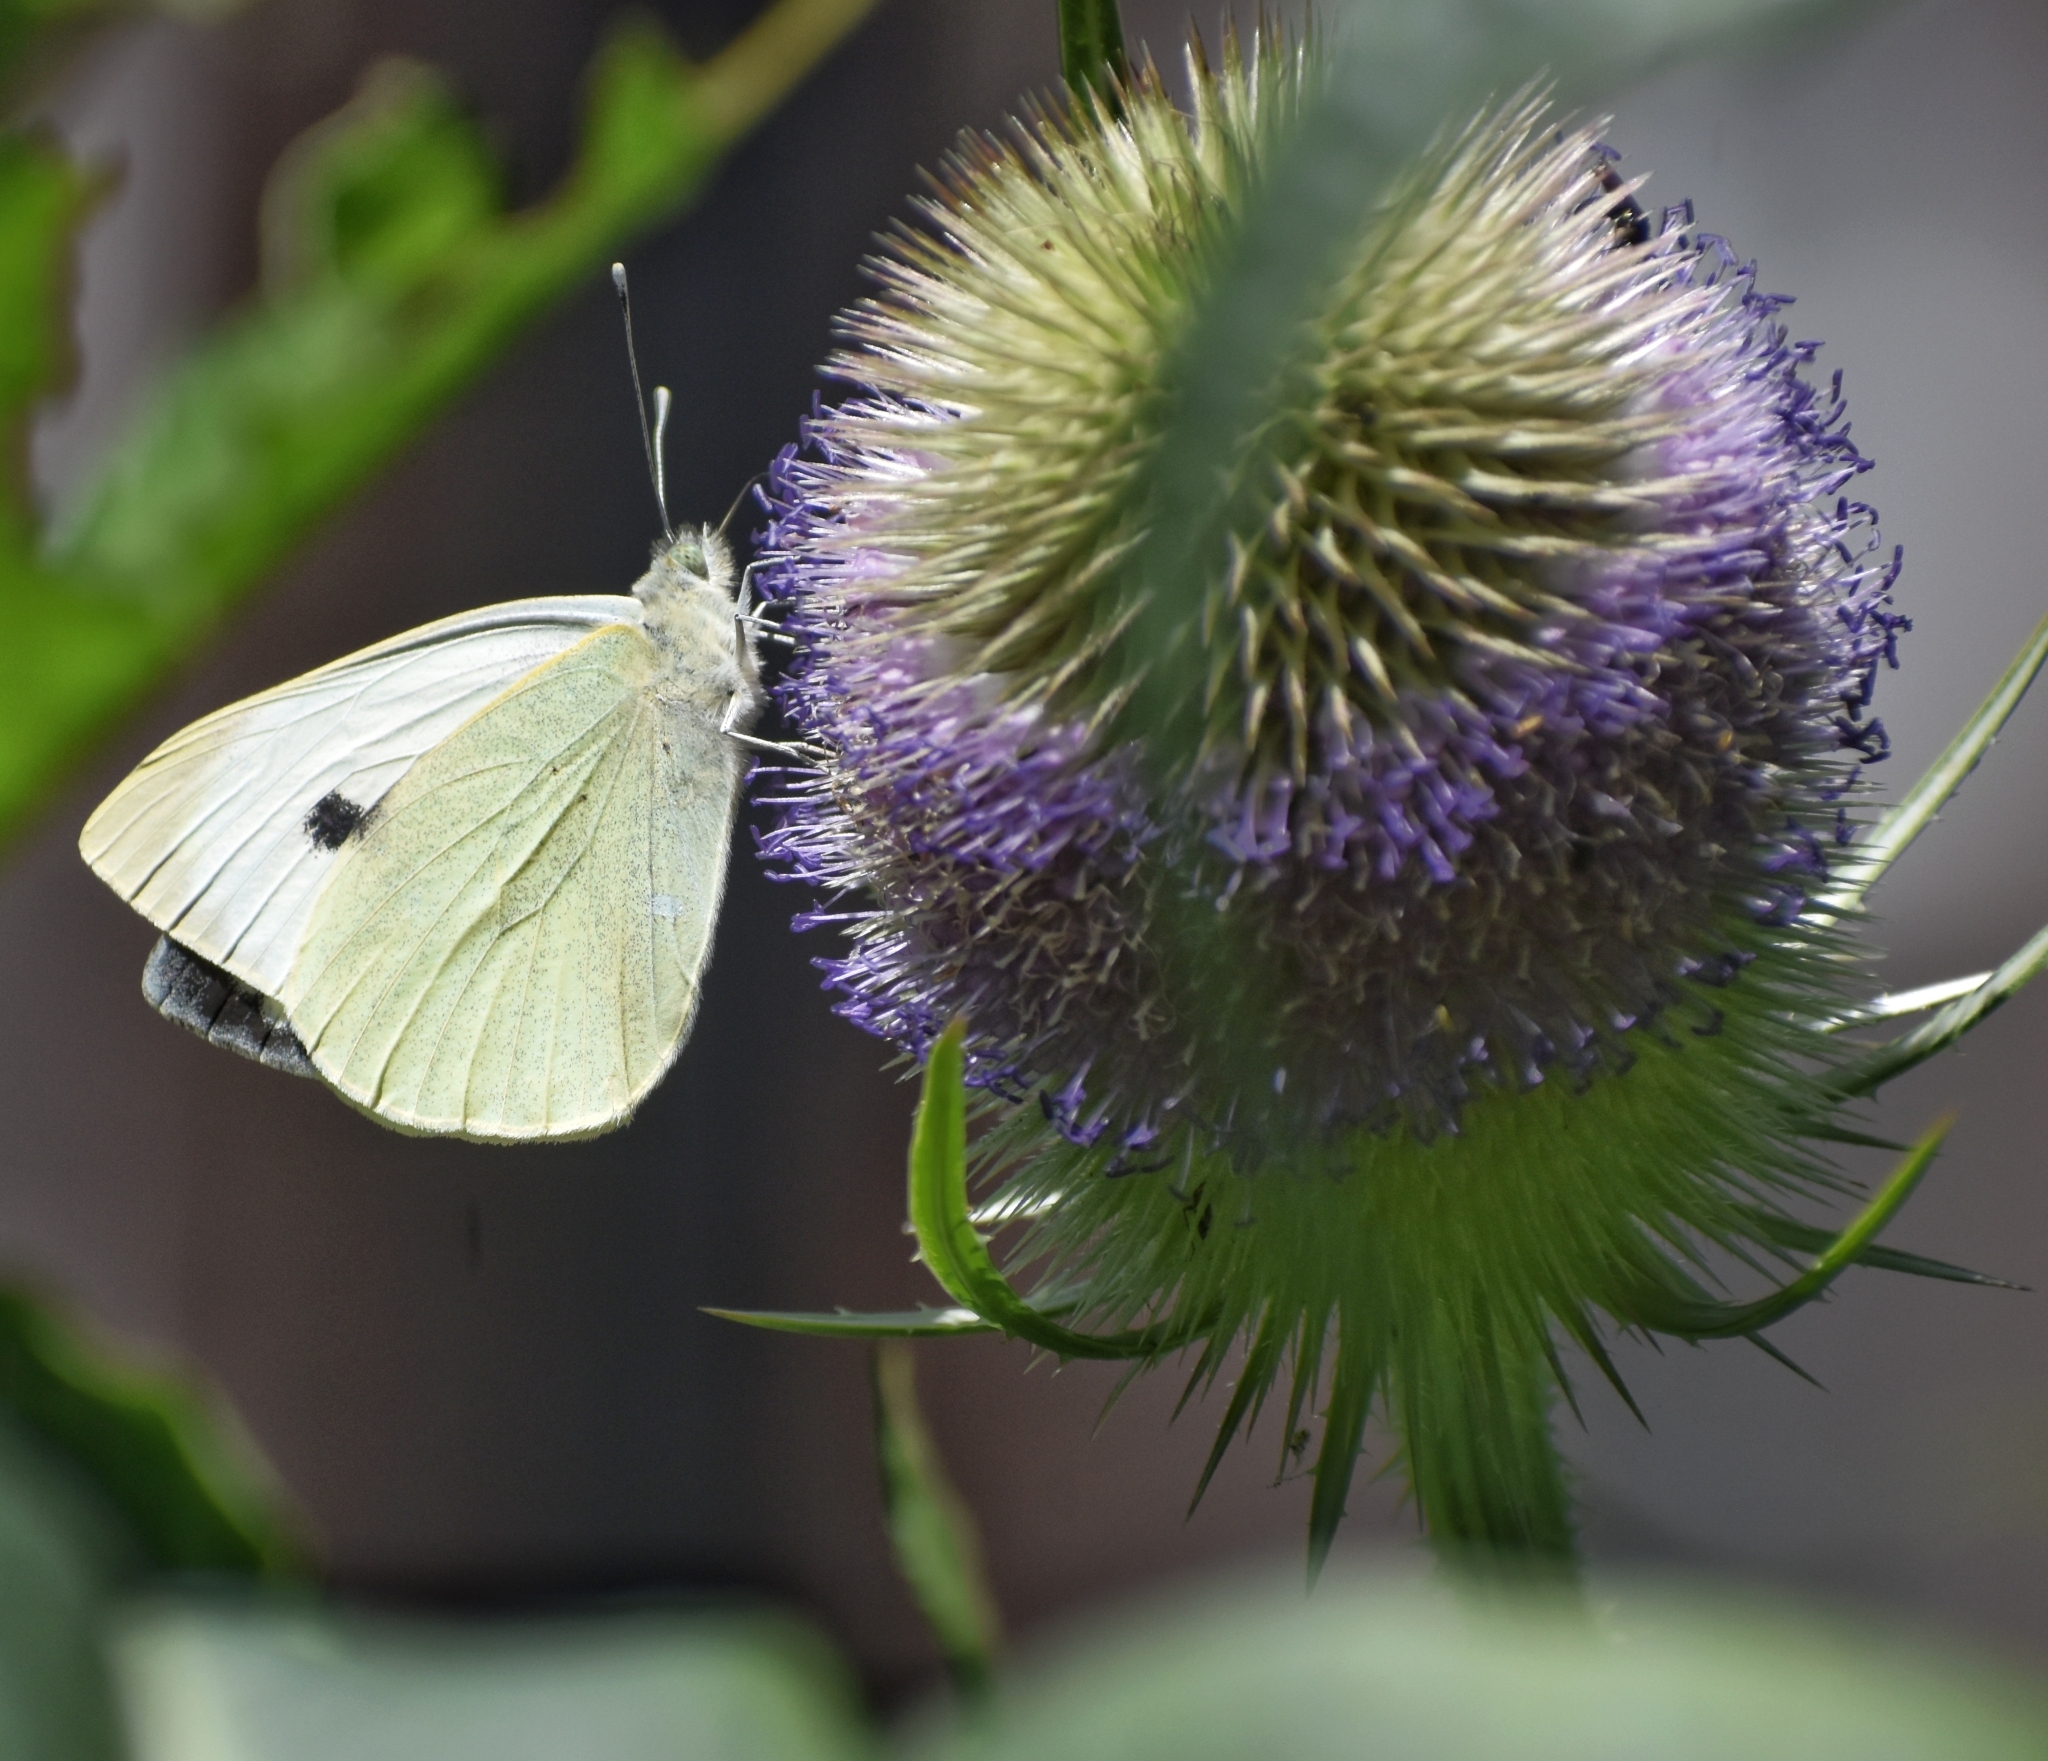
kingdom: Animalia
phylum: Arthropoda
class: Insecta
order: Lepidoptera
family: Pieridae
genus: Pieris
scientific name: Pieris brassicae
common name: Large white
